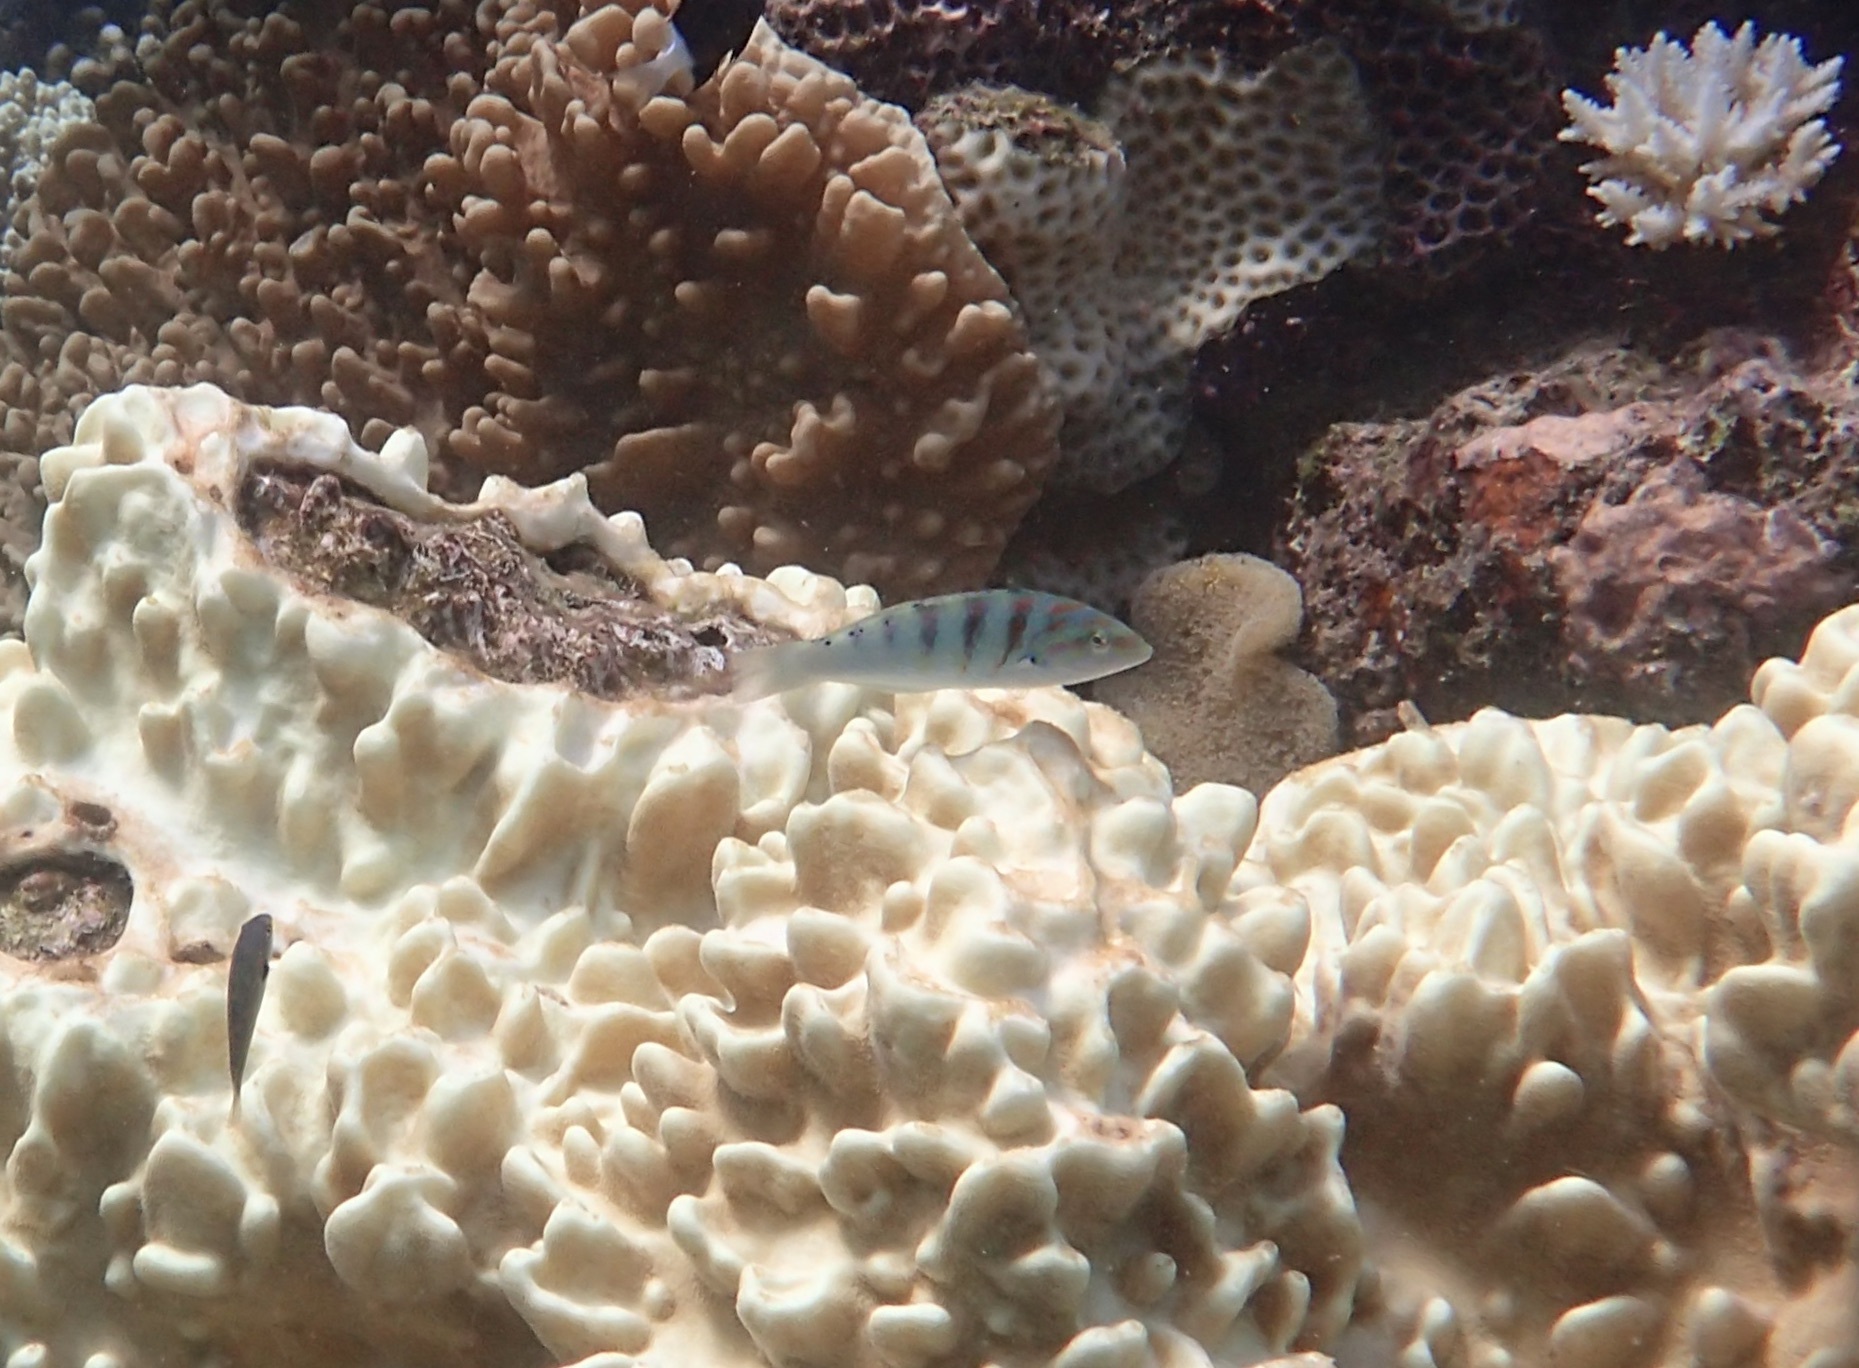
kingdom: Animalia
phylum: Chordata
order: Perciformes
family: Labridae
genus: Thalassoma
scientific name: Thalassoma hardwicke
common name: Sixbar wrasse
